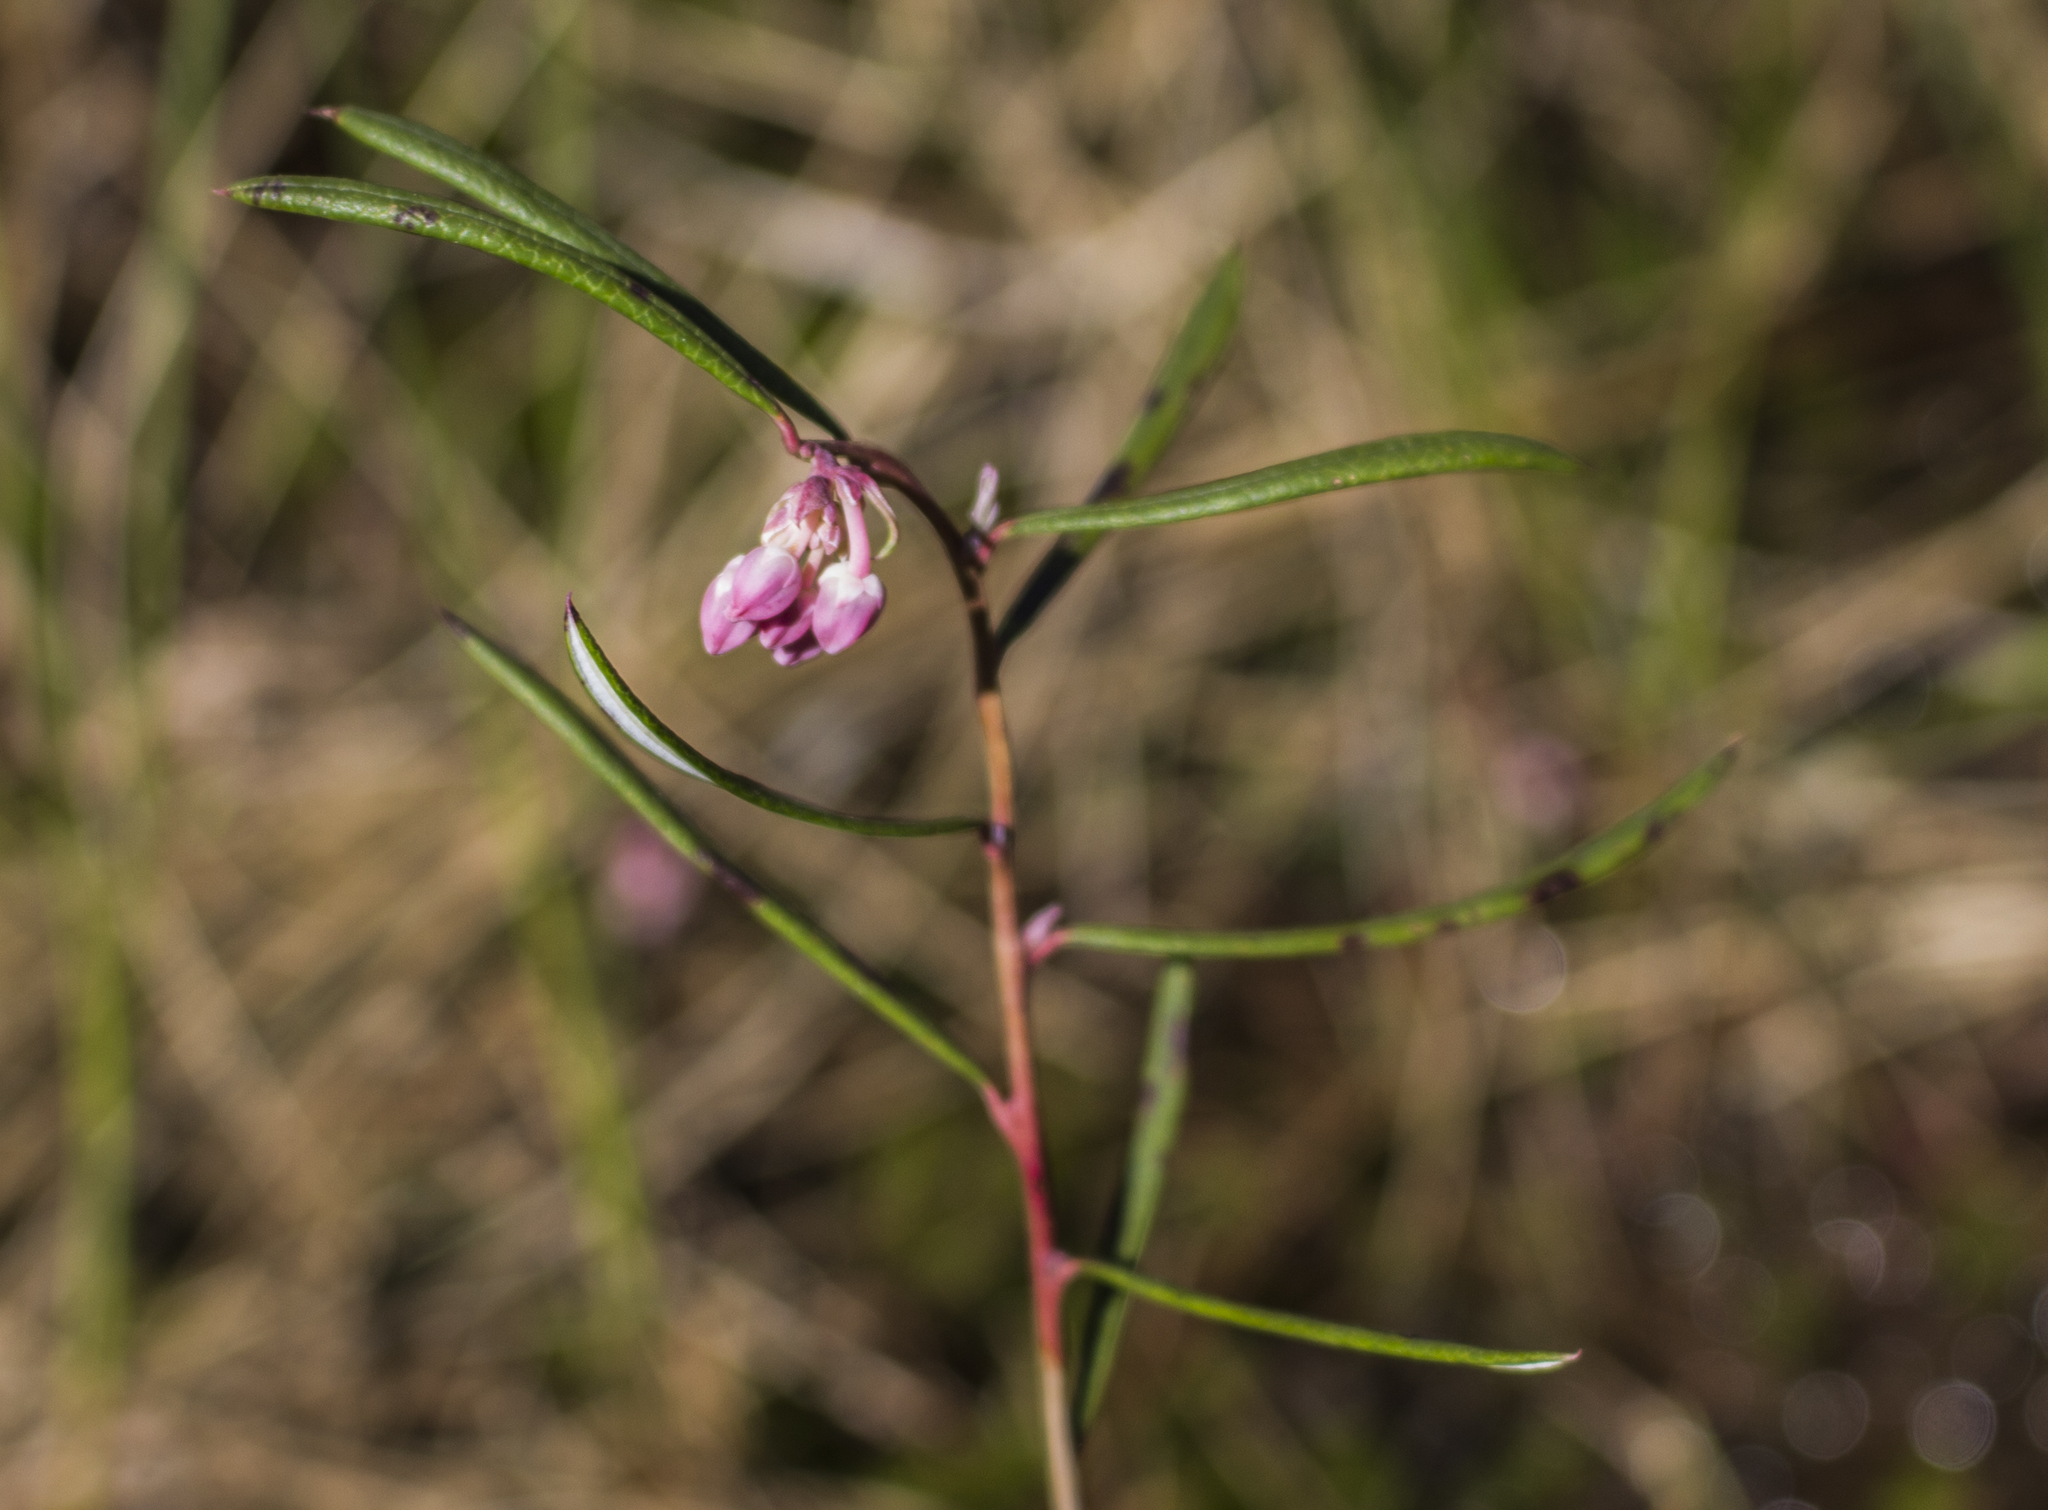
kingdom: Plantae
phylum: Tracheophyta
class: Magnoliopsida
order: Ericales
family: Ericaceae
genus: Andromeda
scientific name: Andromeda polifolia
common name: Bog-rosemary
